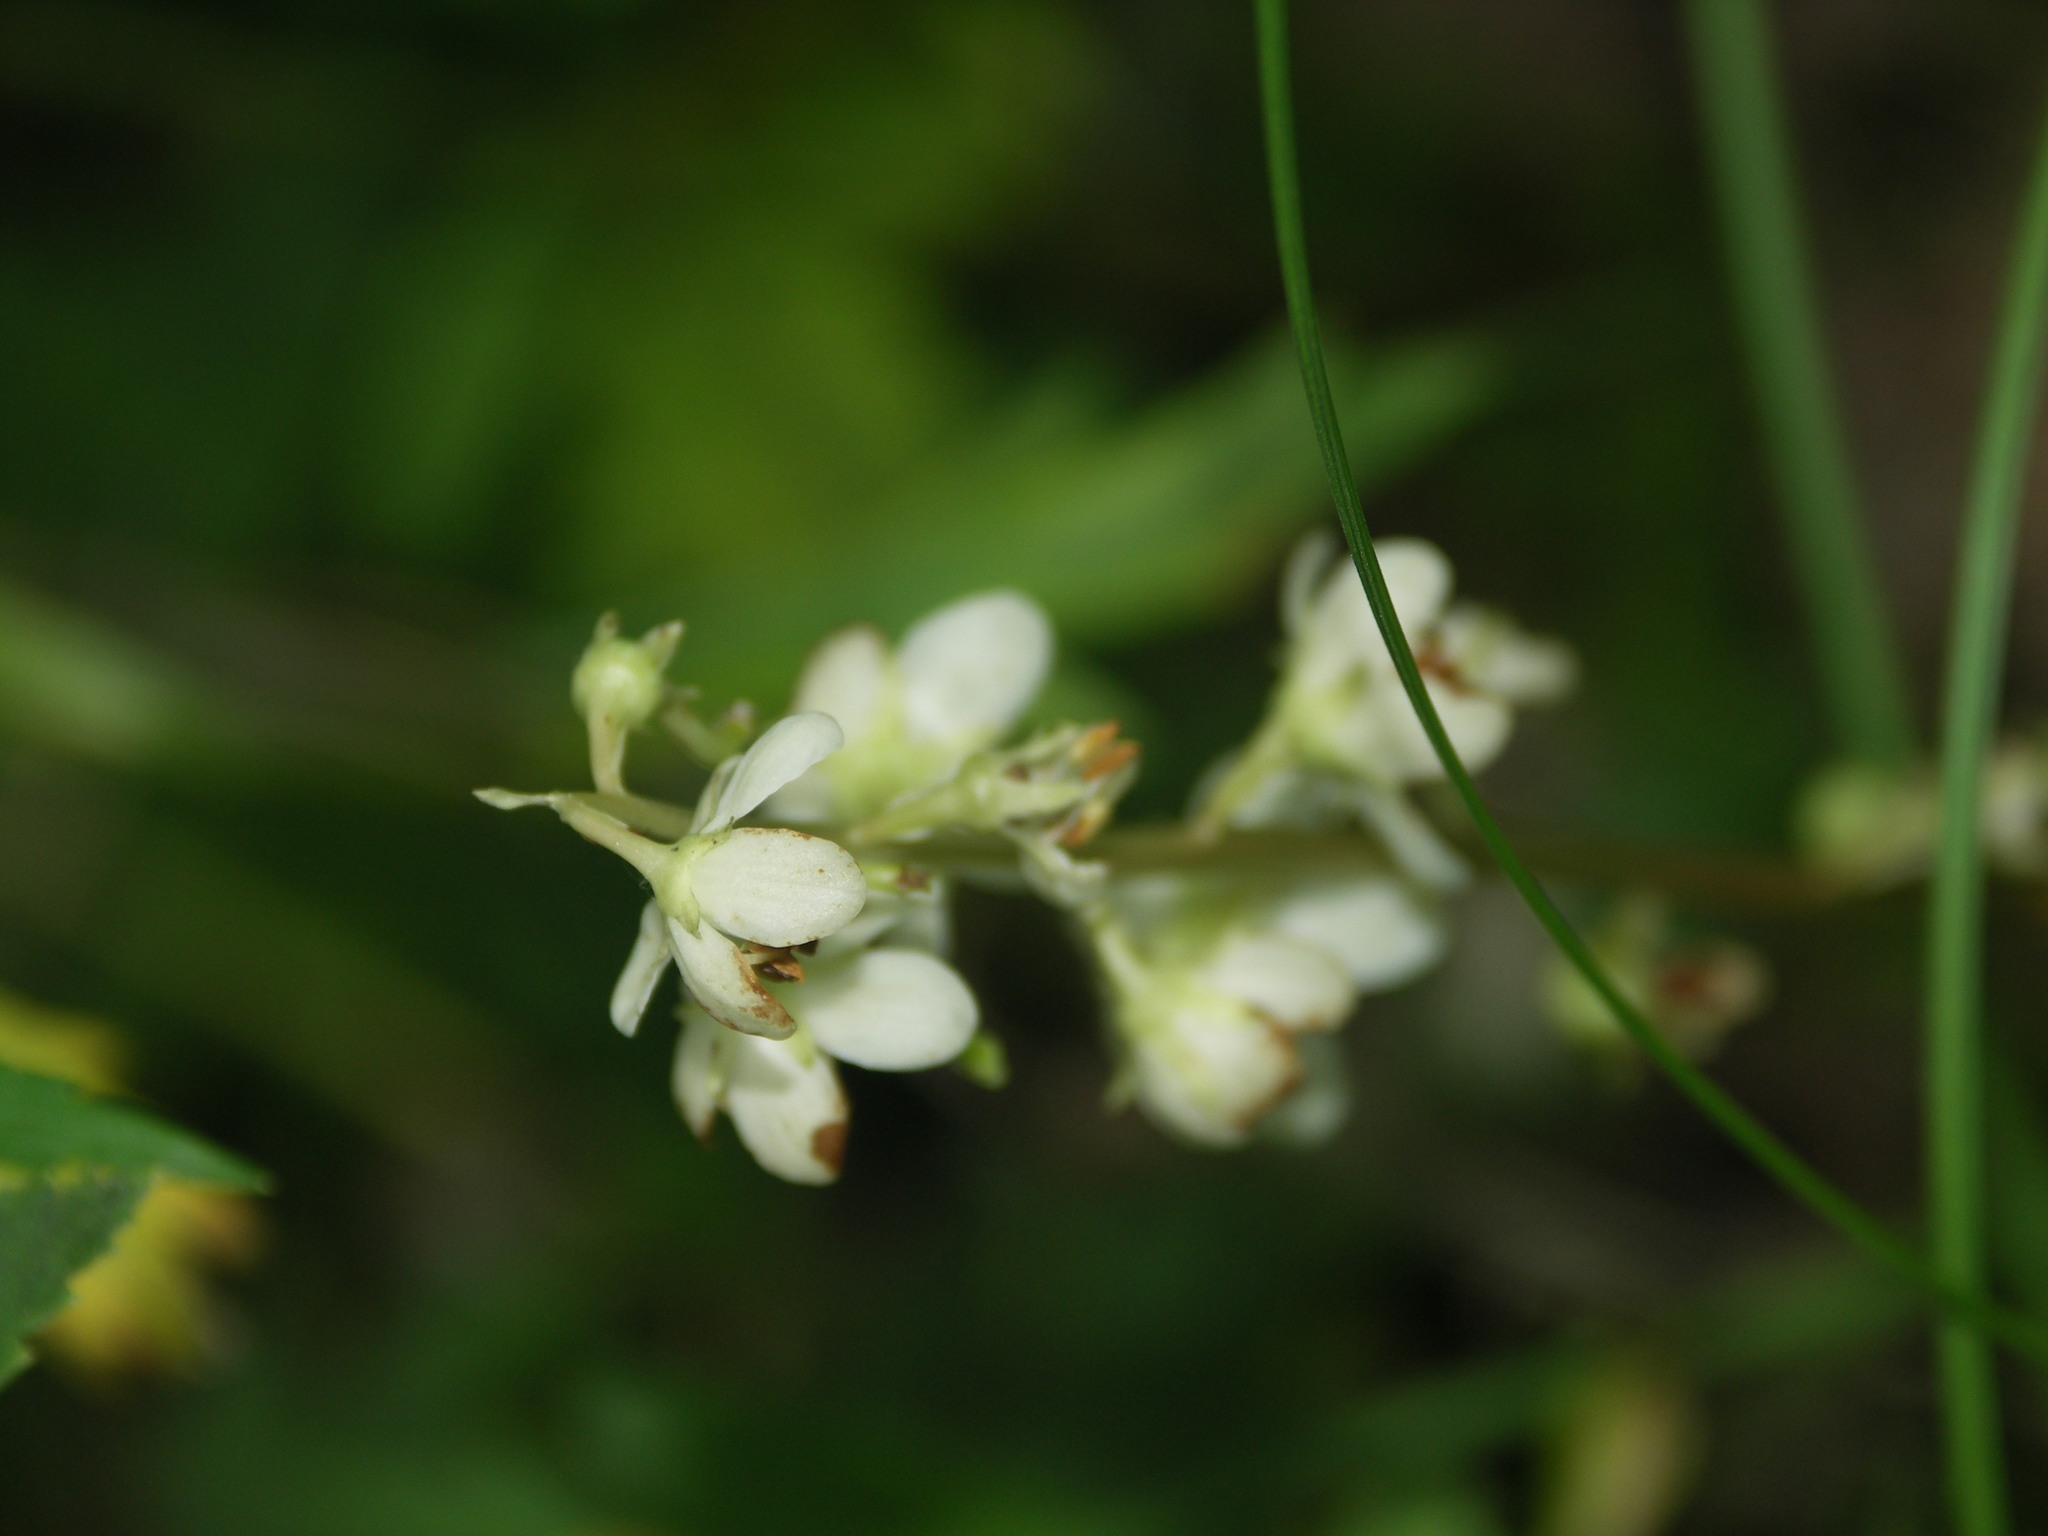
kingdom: Plantae
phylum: Tracheophyta
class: Magnoliopsida
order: Ericales
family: Ericaceae
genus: Pyrola
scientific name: Pyrola rotundifolia
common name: Round-leaved wintergreen
